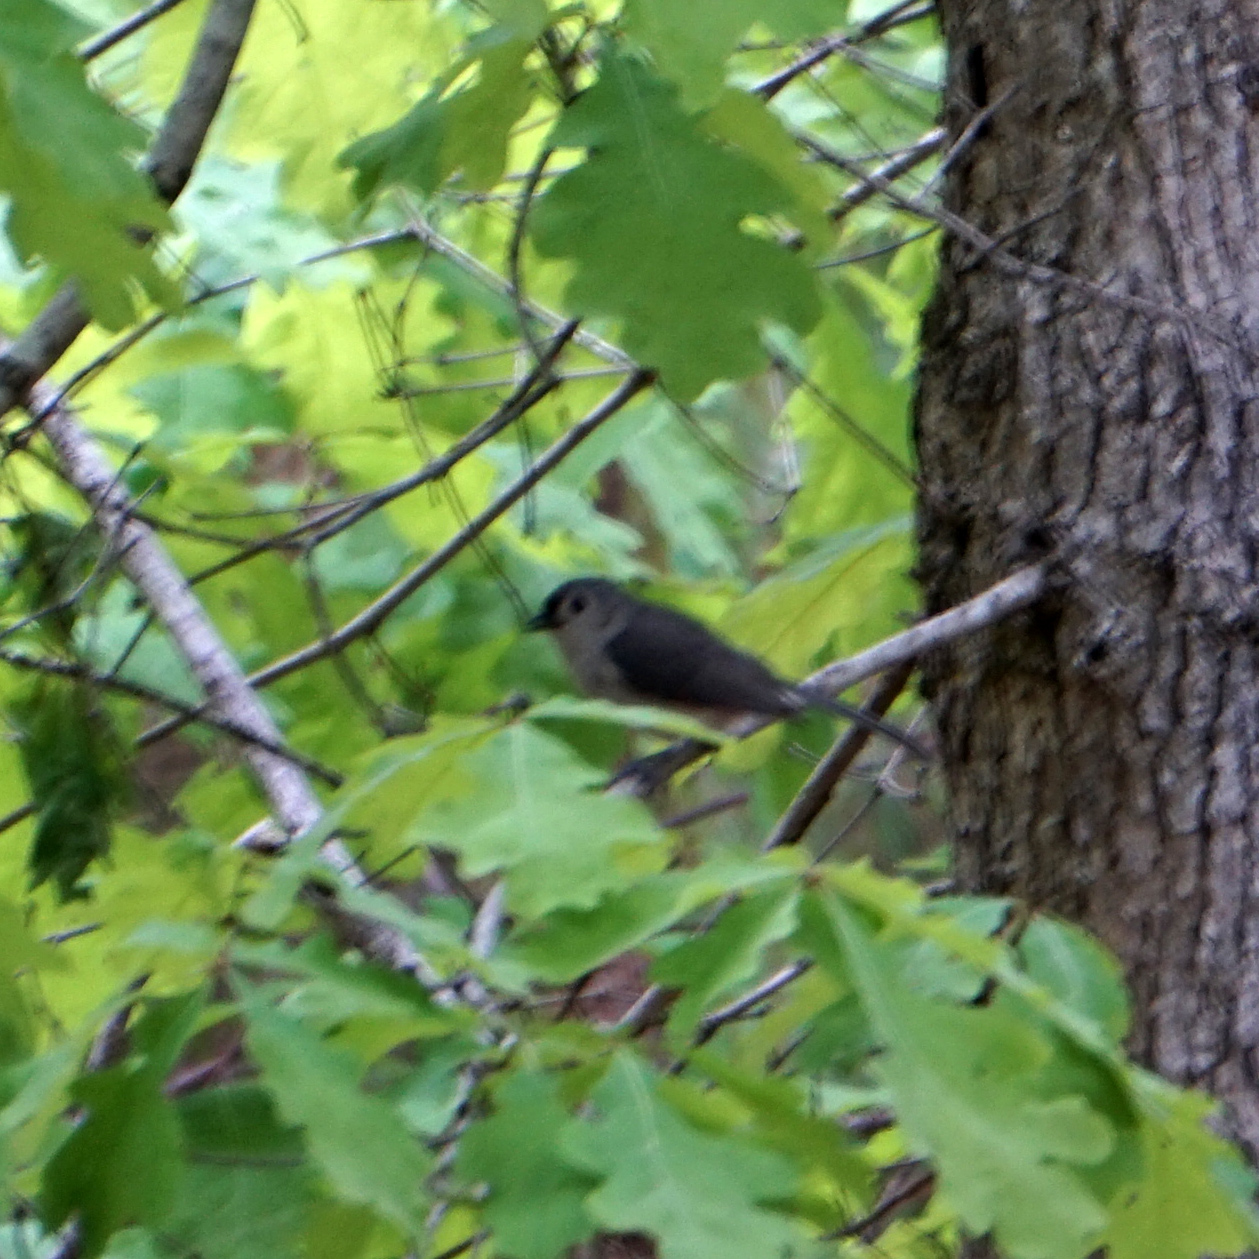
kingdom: Animalia
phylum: Chordata
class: Aves
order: Passeriformes
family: Paridae
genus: Baeolophus
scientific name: Baeolophus bicolor
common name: Tufted titmouse
